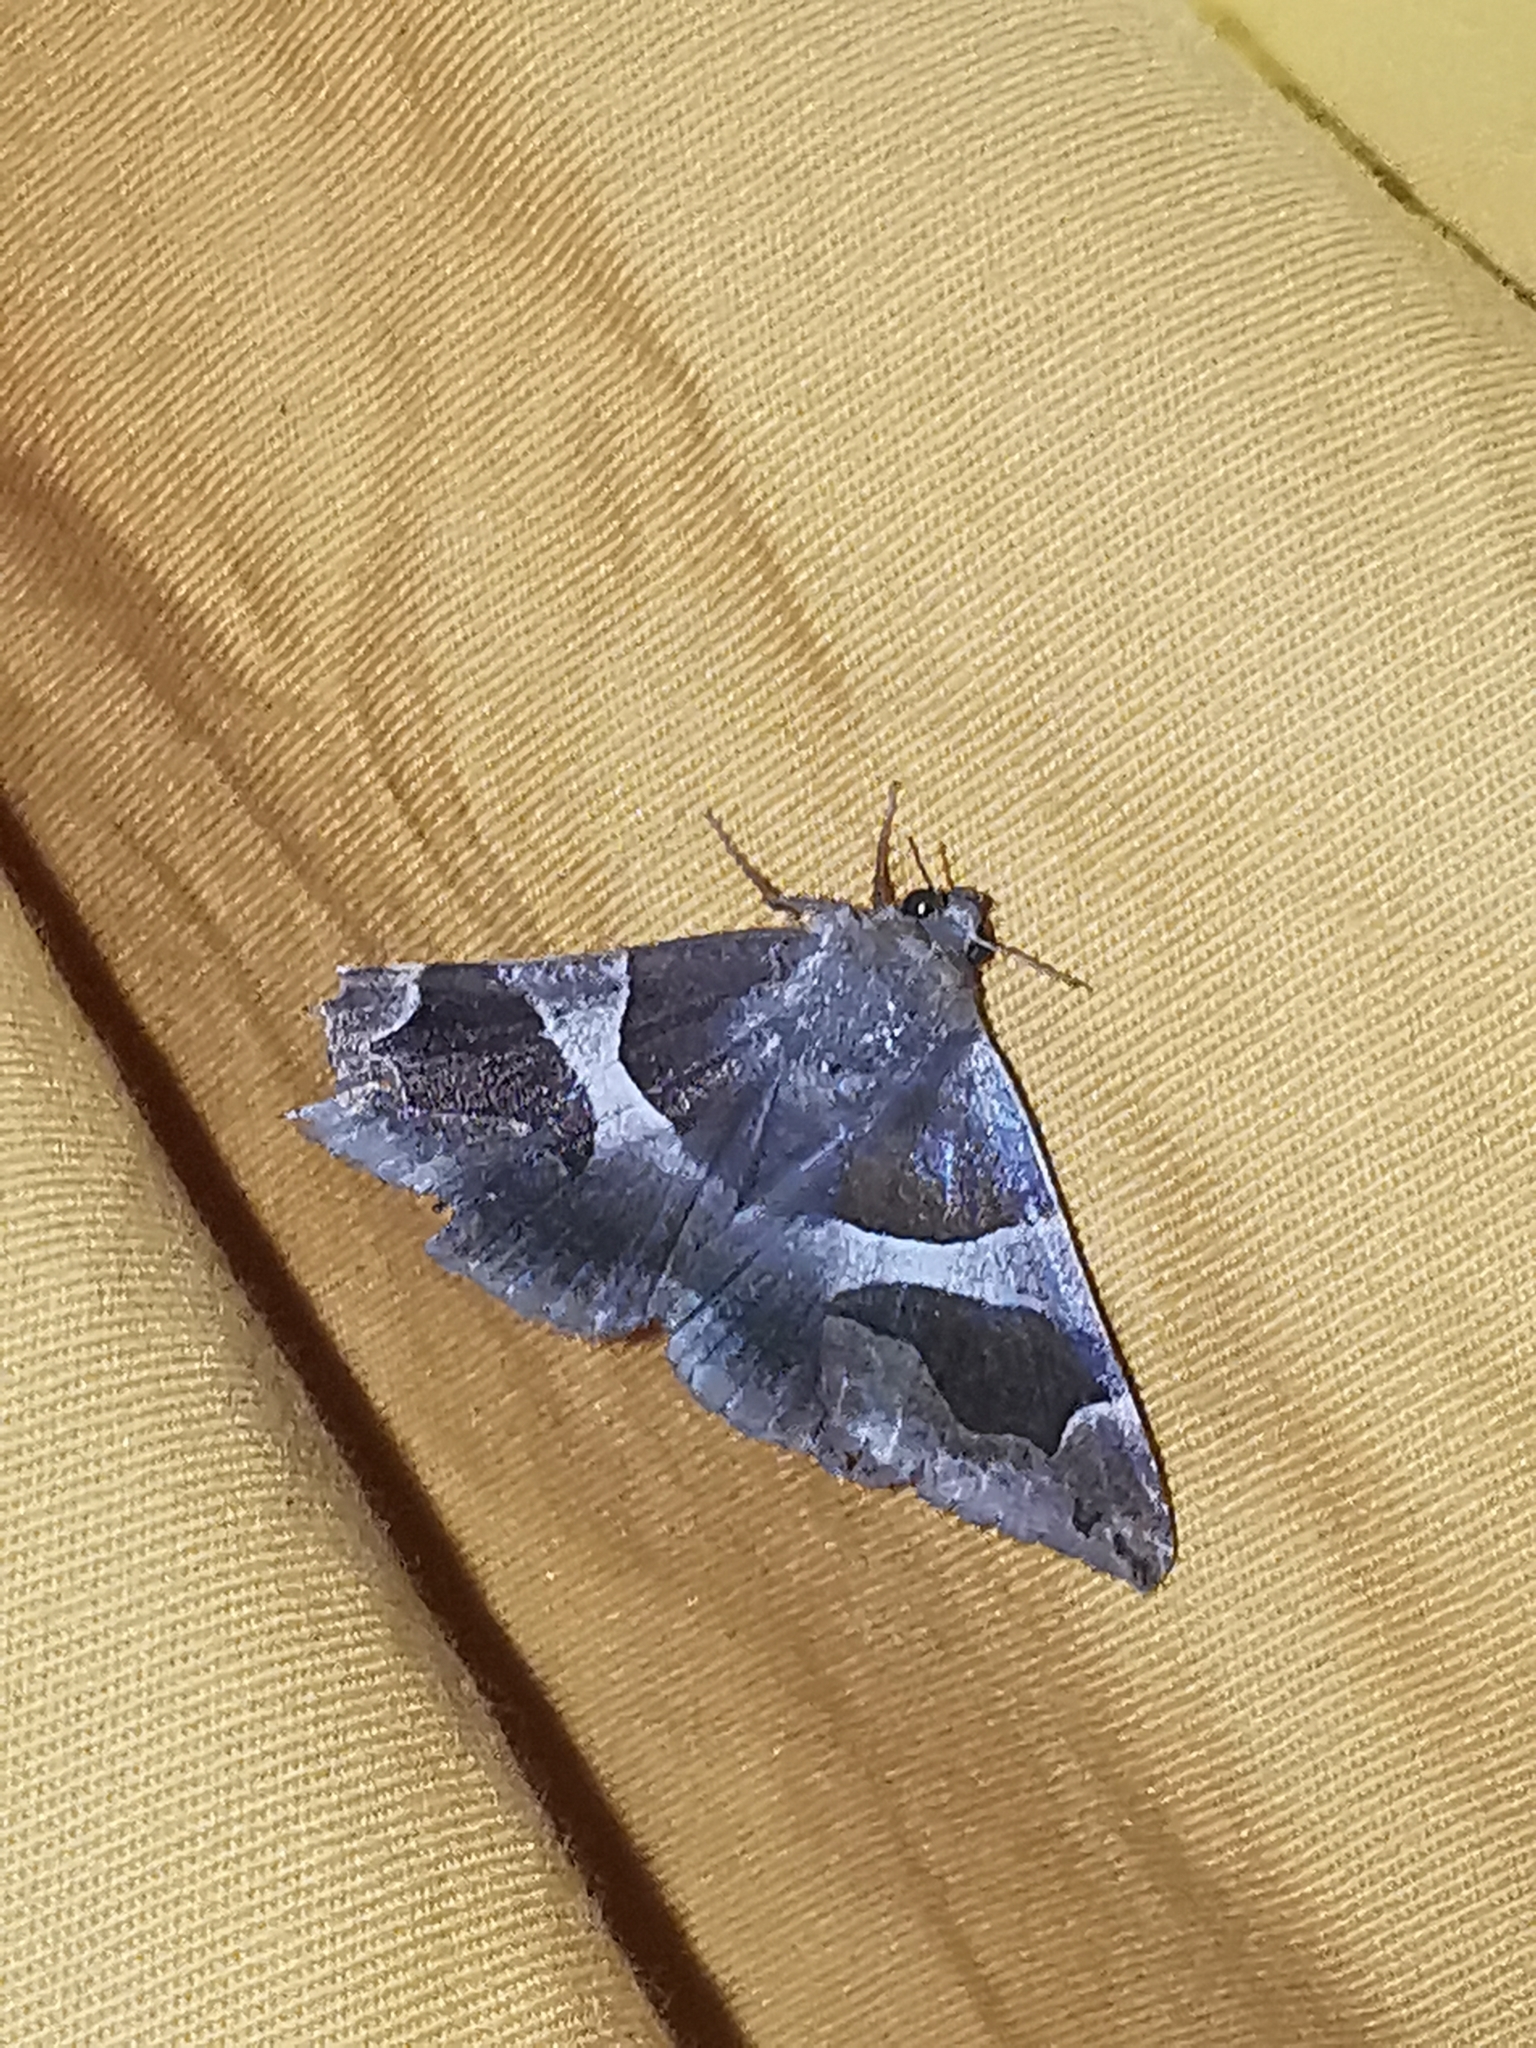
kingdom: Animalia
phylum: Arthropoda
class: Insecta
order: Lepidoptera
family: Erebidae
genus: Dysgonia
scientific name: Dysgonia algira
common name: Passenger
